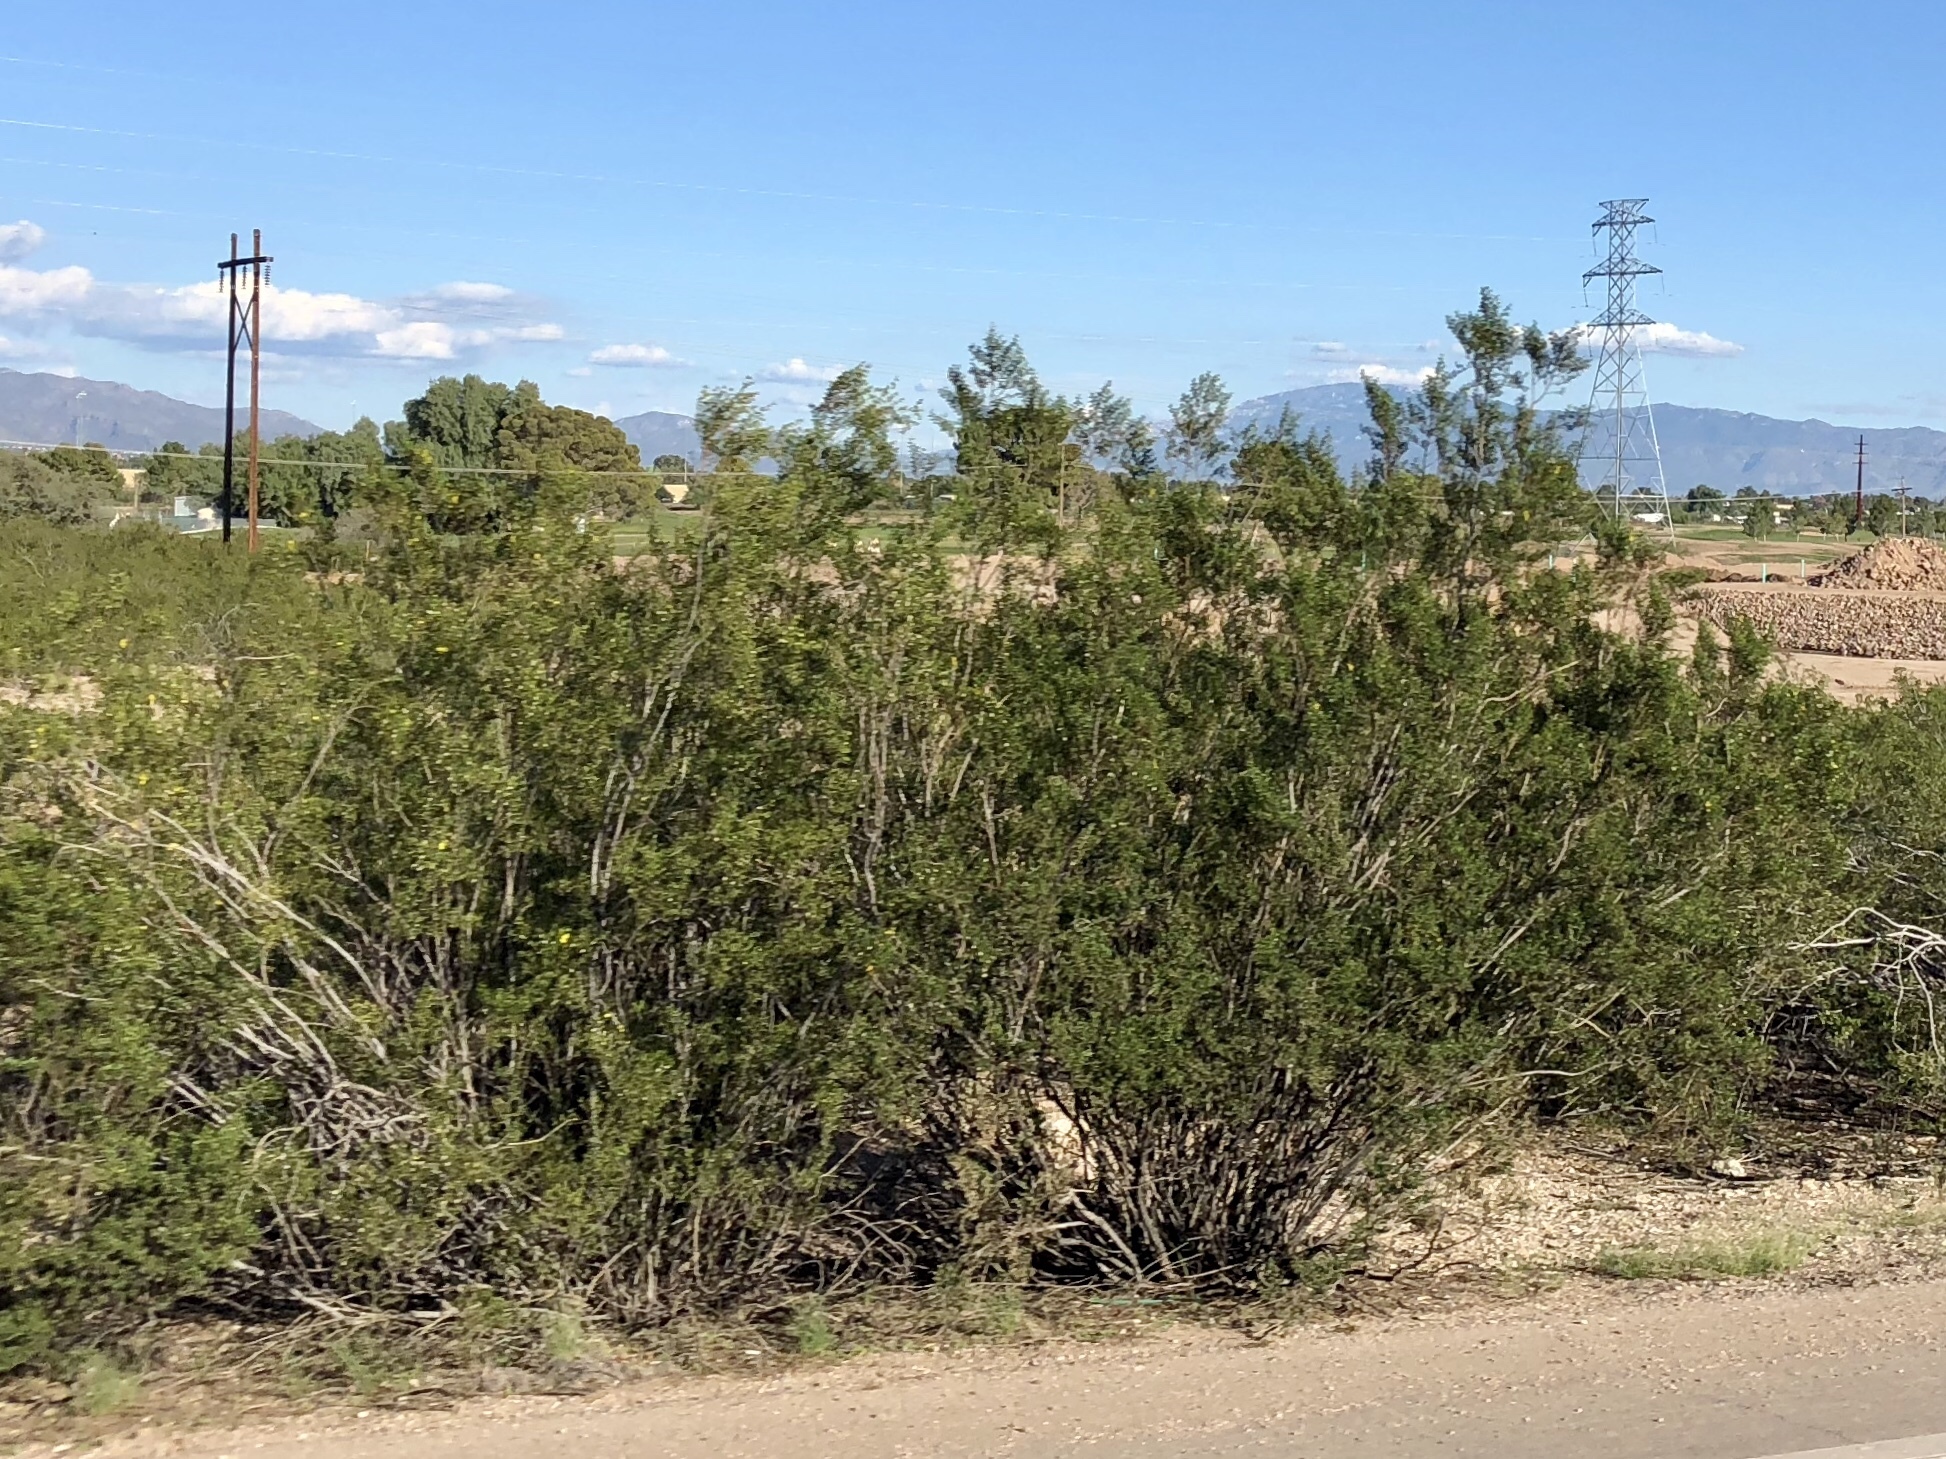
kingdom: Plantae
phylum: Tracheophyta
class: Magnoliopsida
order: Zygophyllales
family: Zygophyllaceae
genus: Larrea
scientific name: Larrea tridentata
